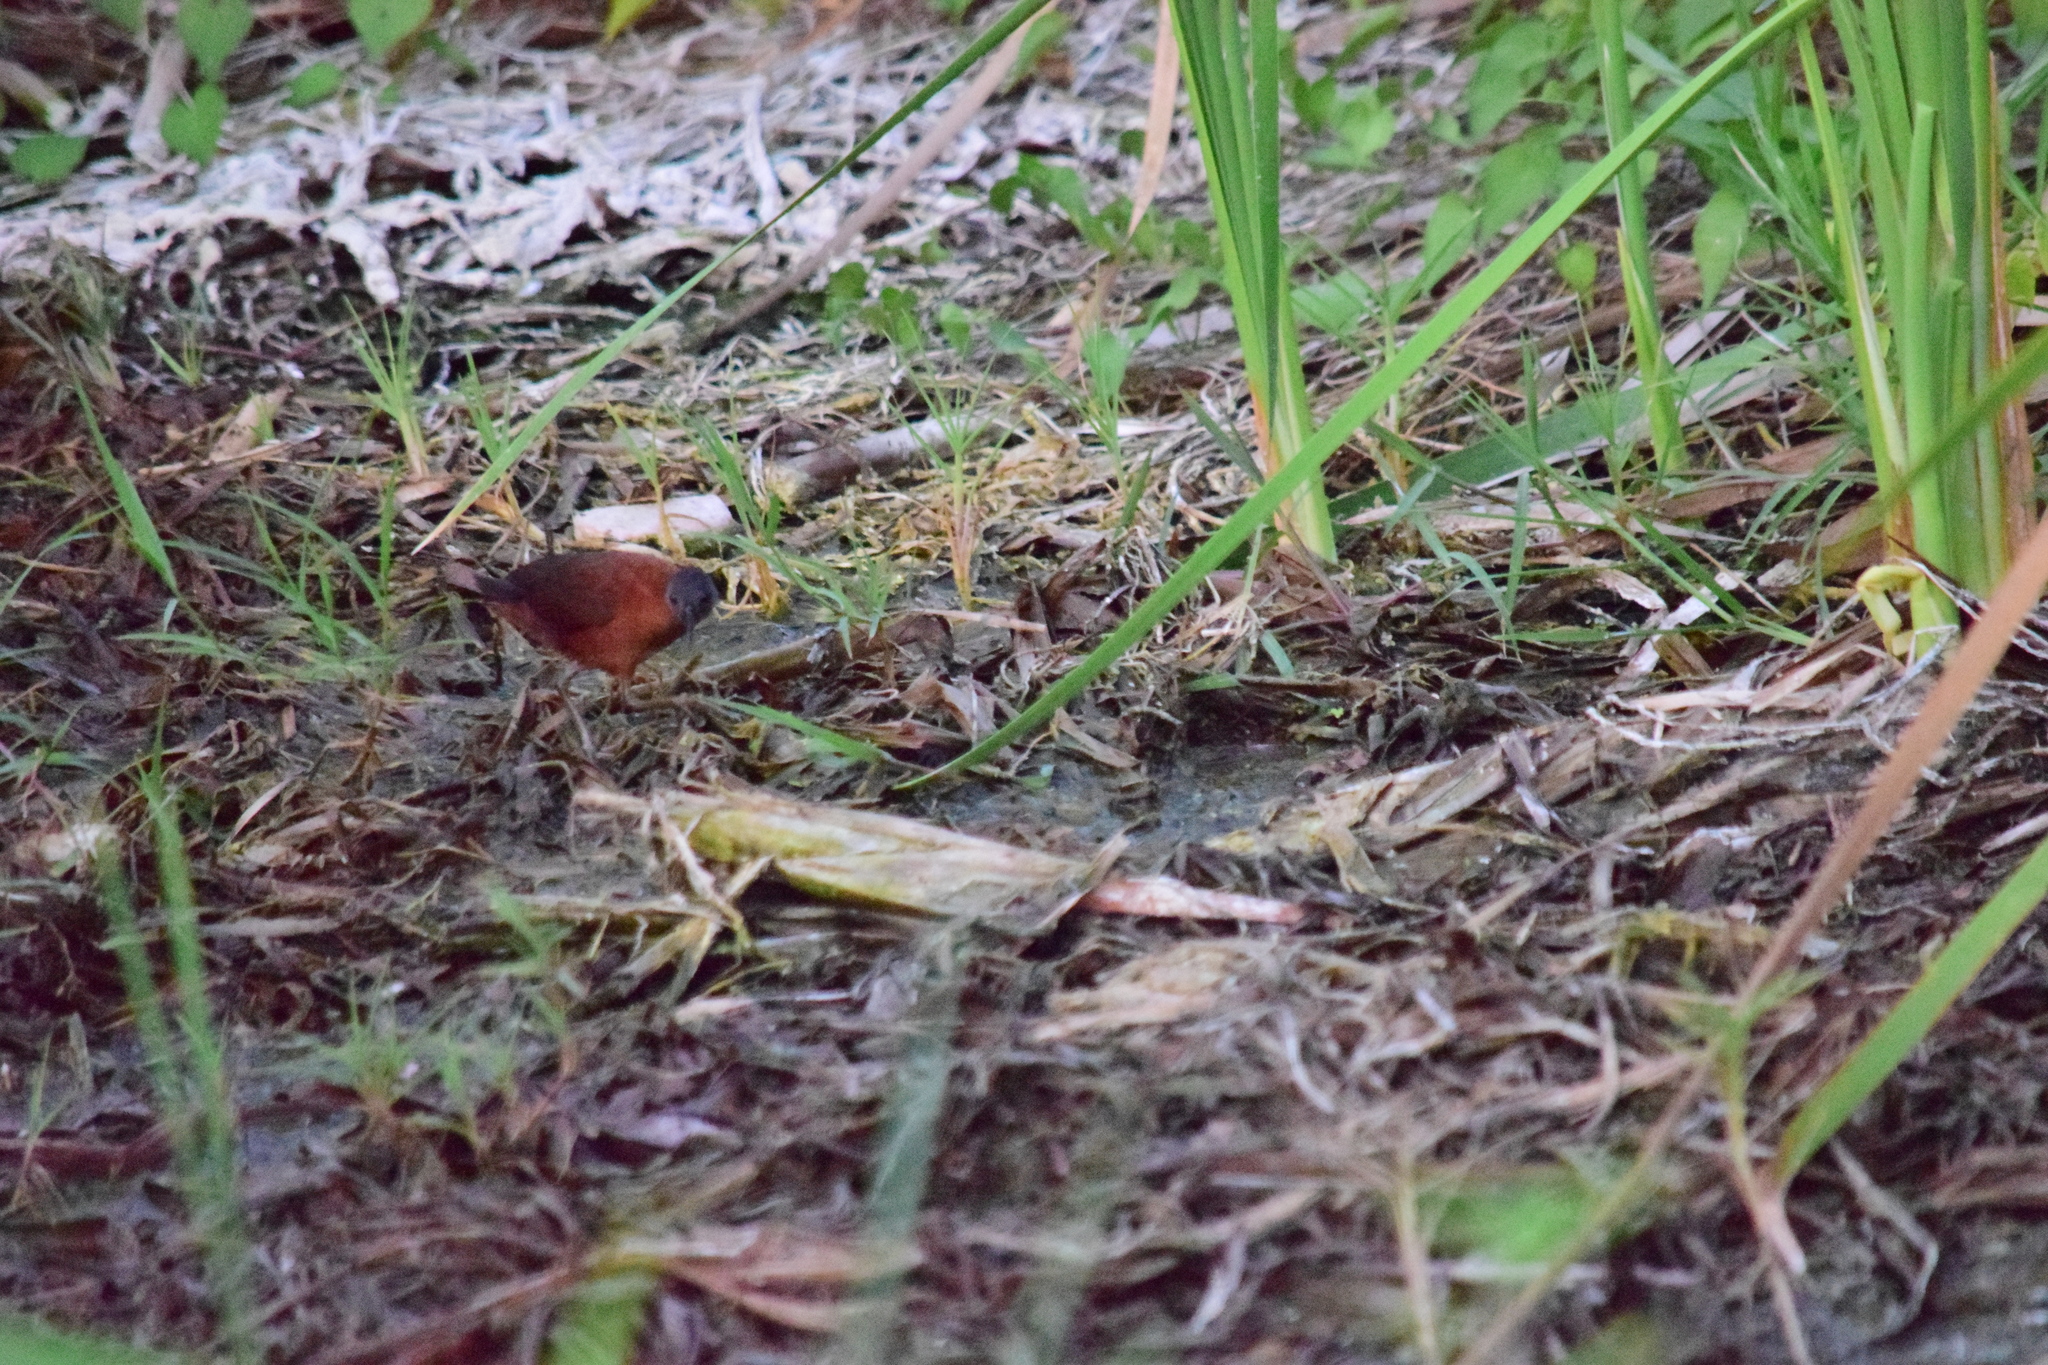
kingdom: Animalia
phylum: Chordata
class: Aves
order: Gruiformes
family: Rallidae
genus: Laterallus
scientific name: Laterallus ruber
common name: Ruddy crake
